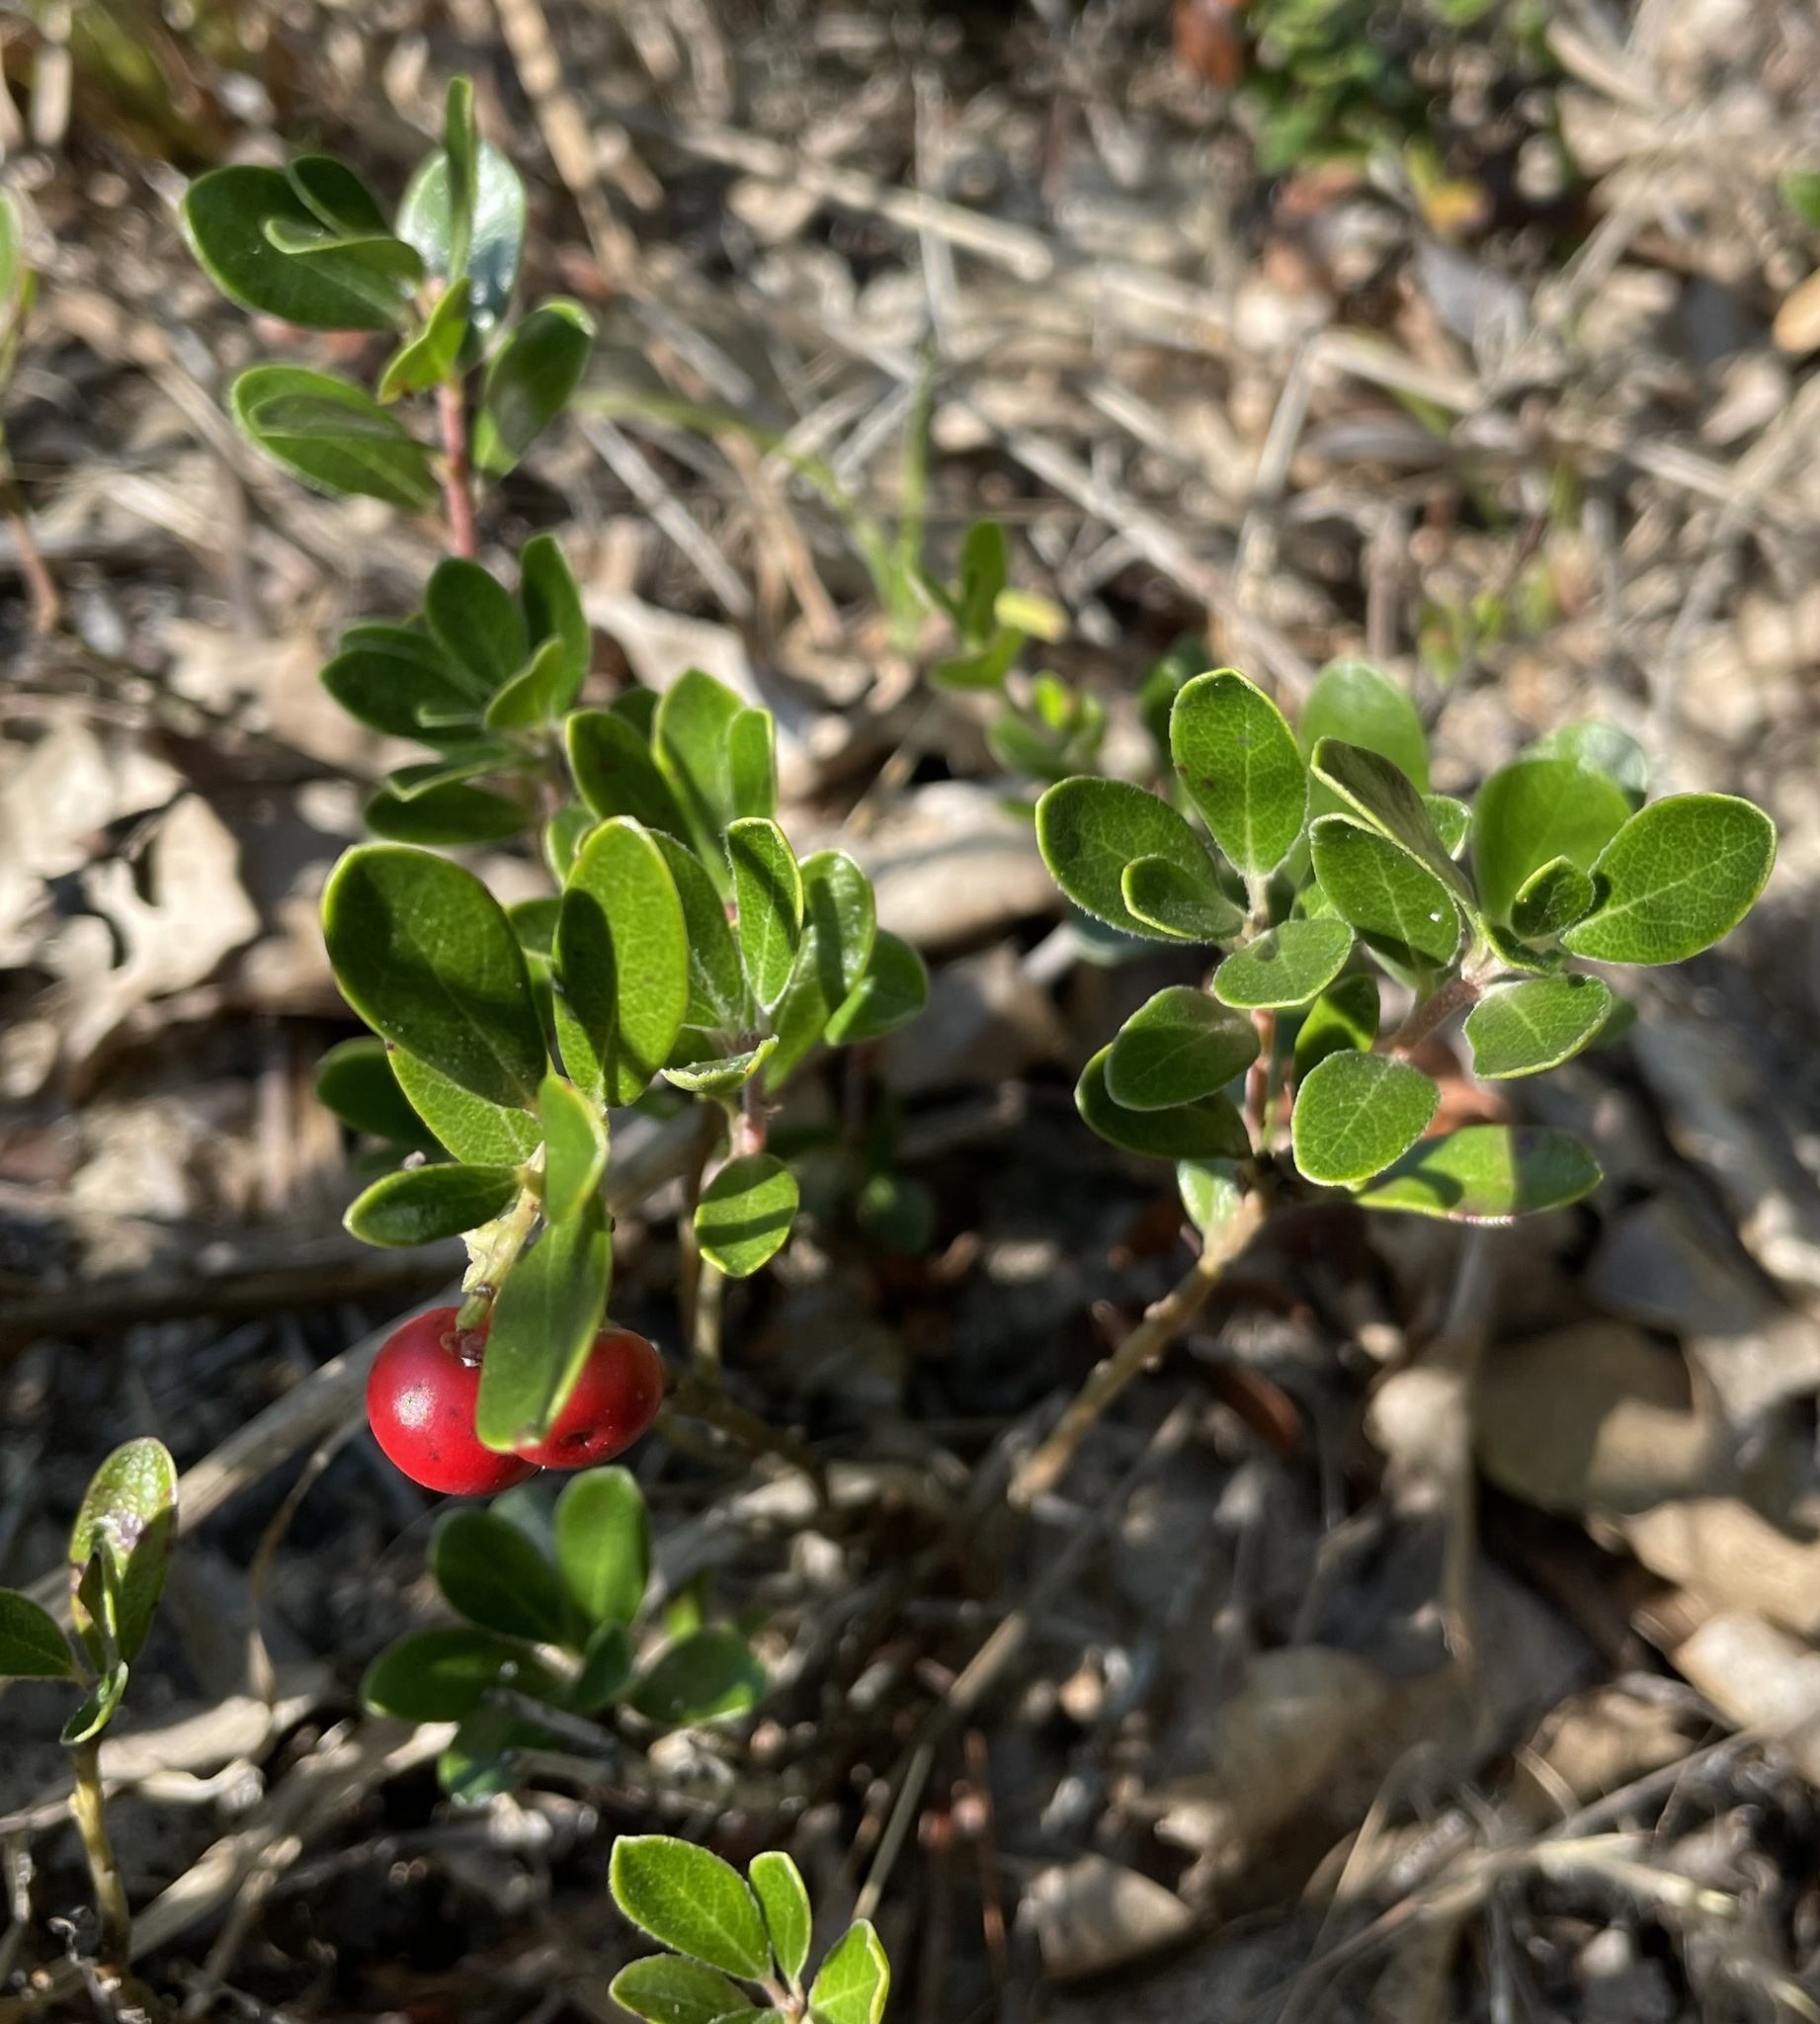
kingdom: Plantae
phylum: Tracheophyta
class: Magnoliopsida
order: Ericales
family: Ericaceae
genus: Arctostaphylos
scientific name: Arctostaphylos uva-ursi
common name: Bearberry
